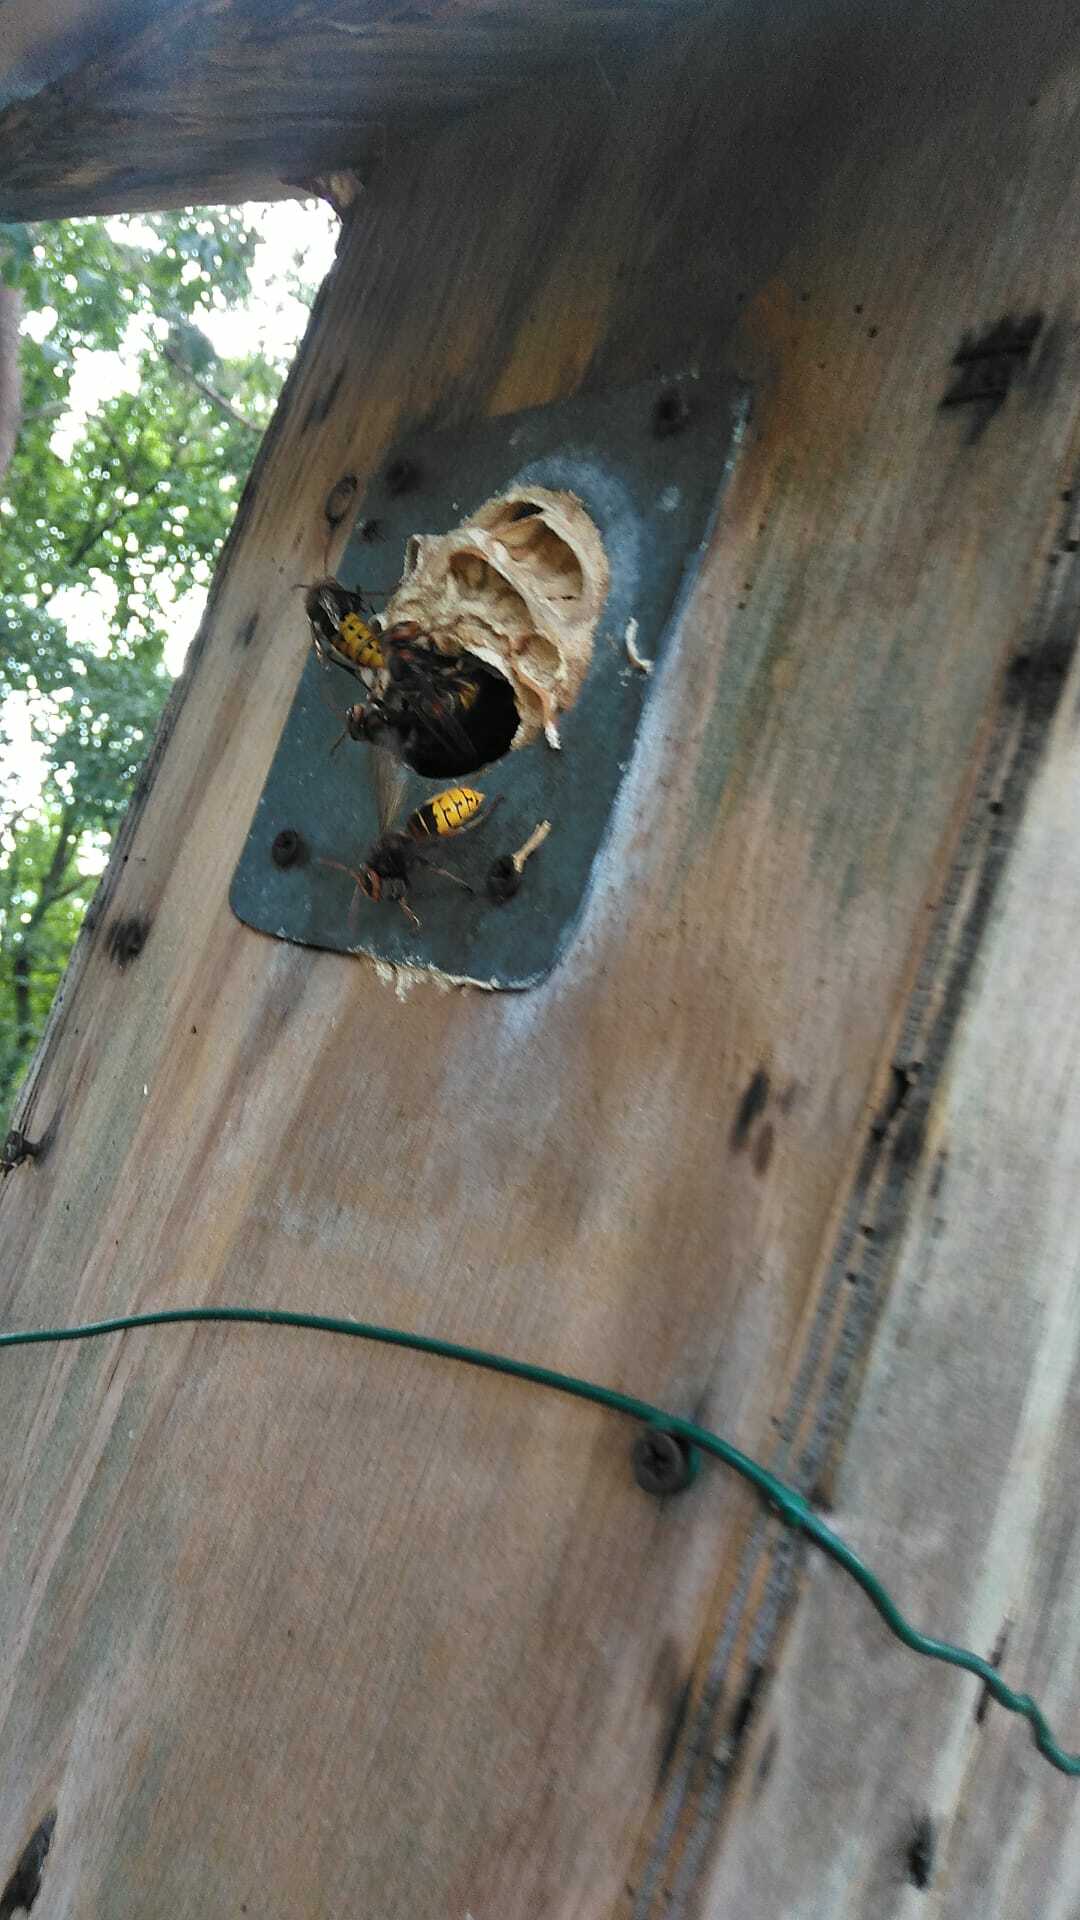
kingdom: Animalia
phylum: Arthropoda
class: Insecta
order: Hymenoptera
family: Vespidae
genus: Vespa
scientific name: Vespa crabro
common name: Hornet
